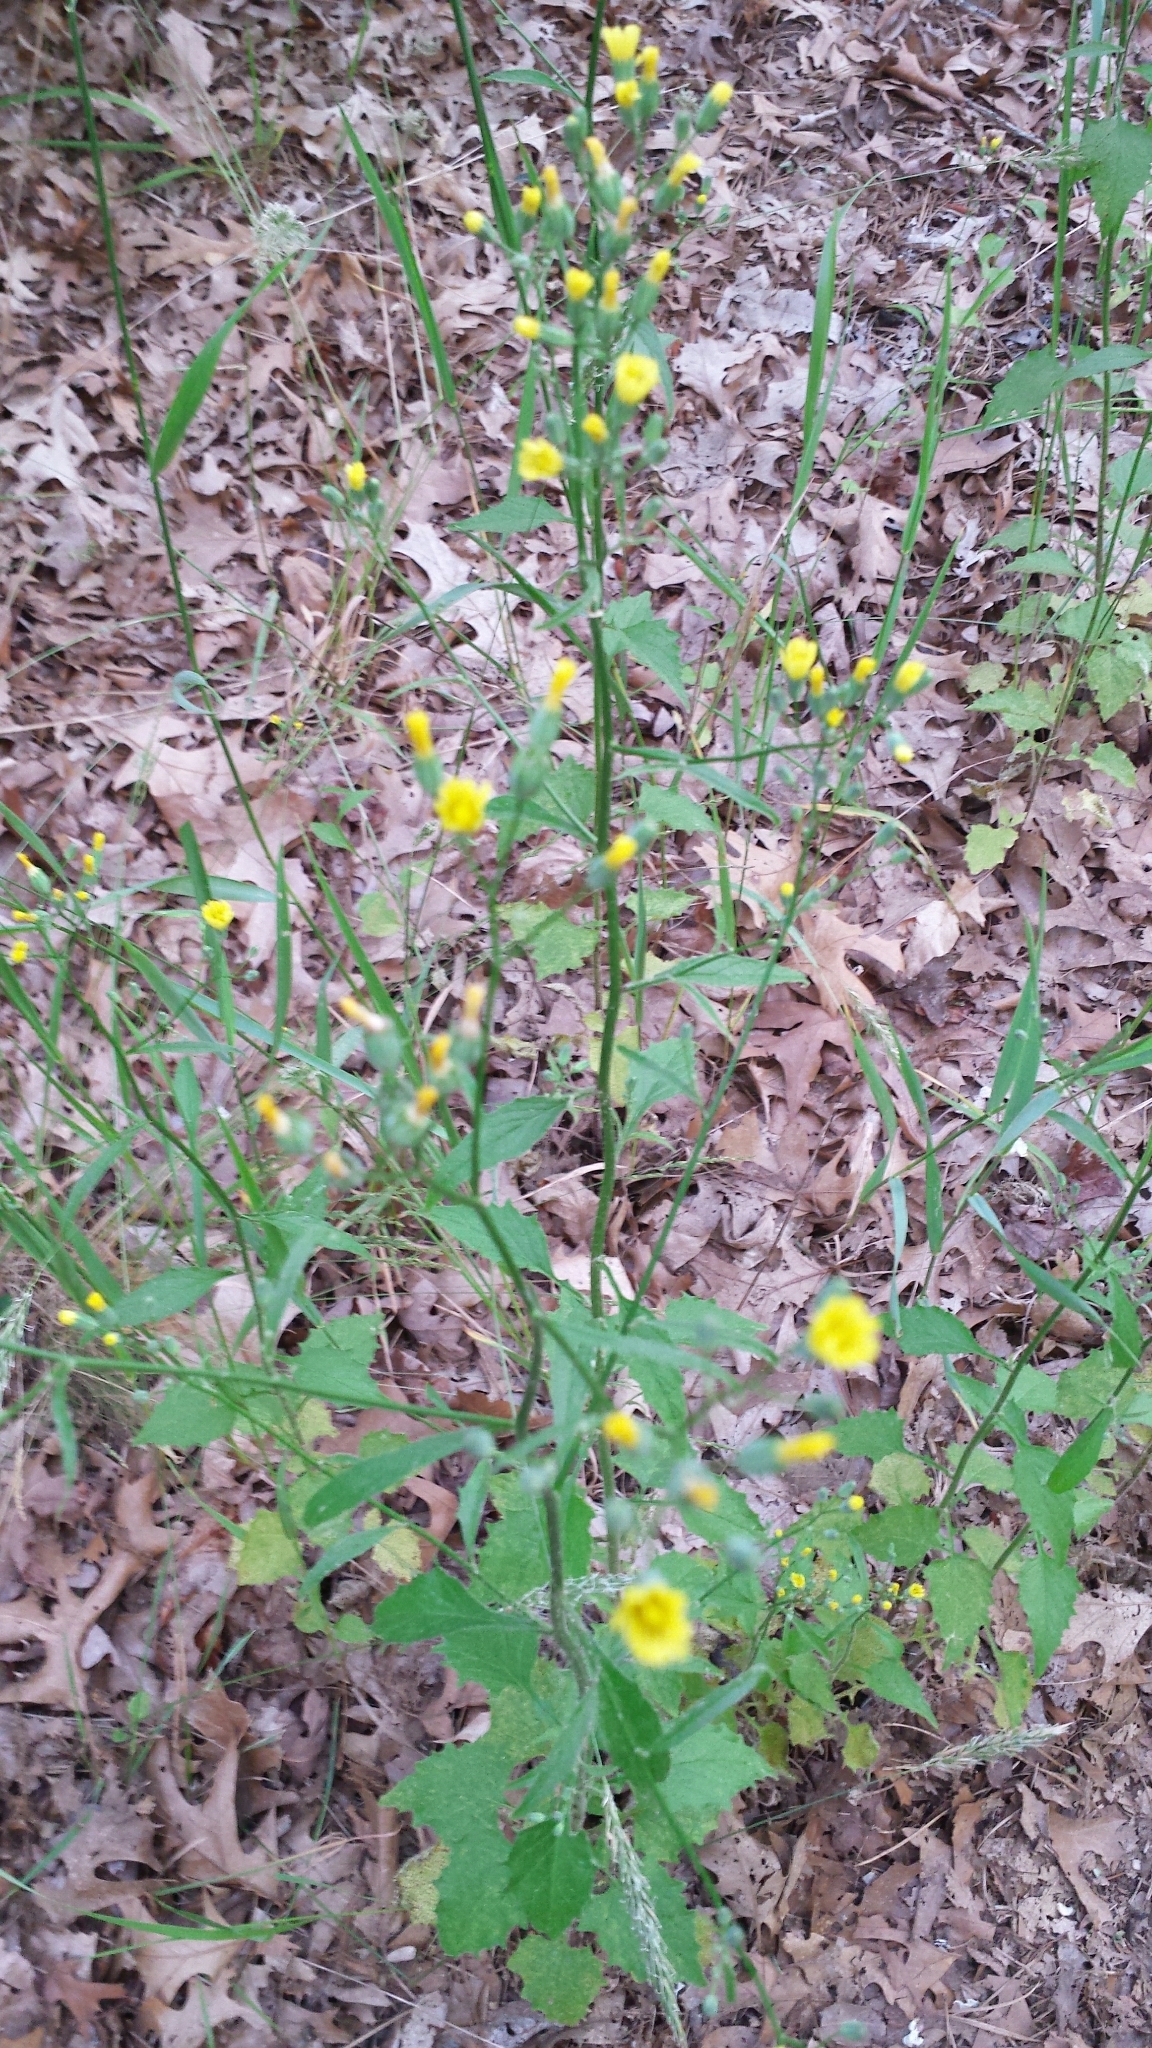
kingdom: Plantae
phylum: Tracheophyta
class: Magnoliopsida
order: Asterales
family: Asteraceae
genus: Lapsana
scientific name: Lapsana communis
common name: Nipplewort
